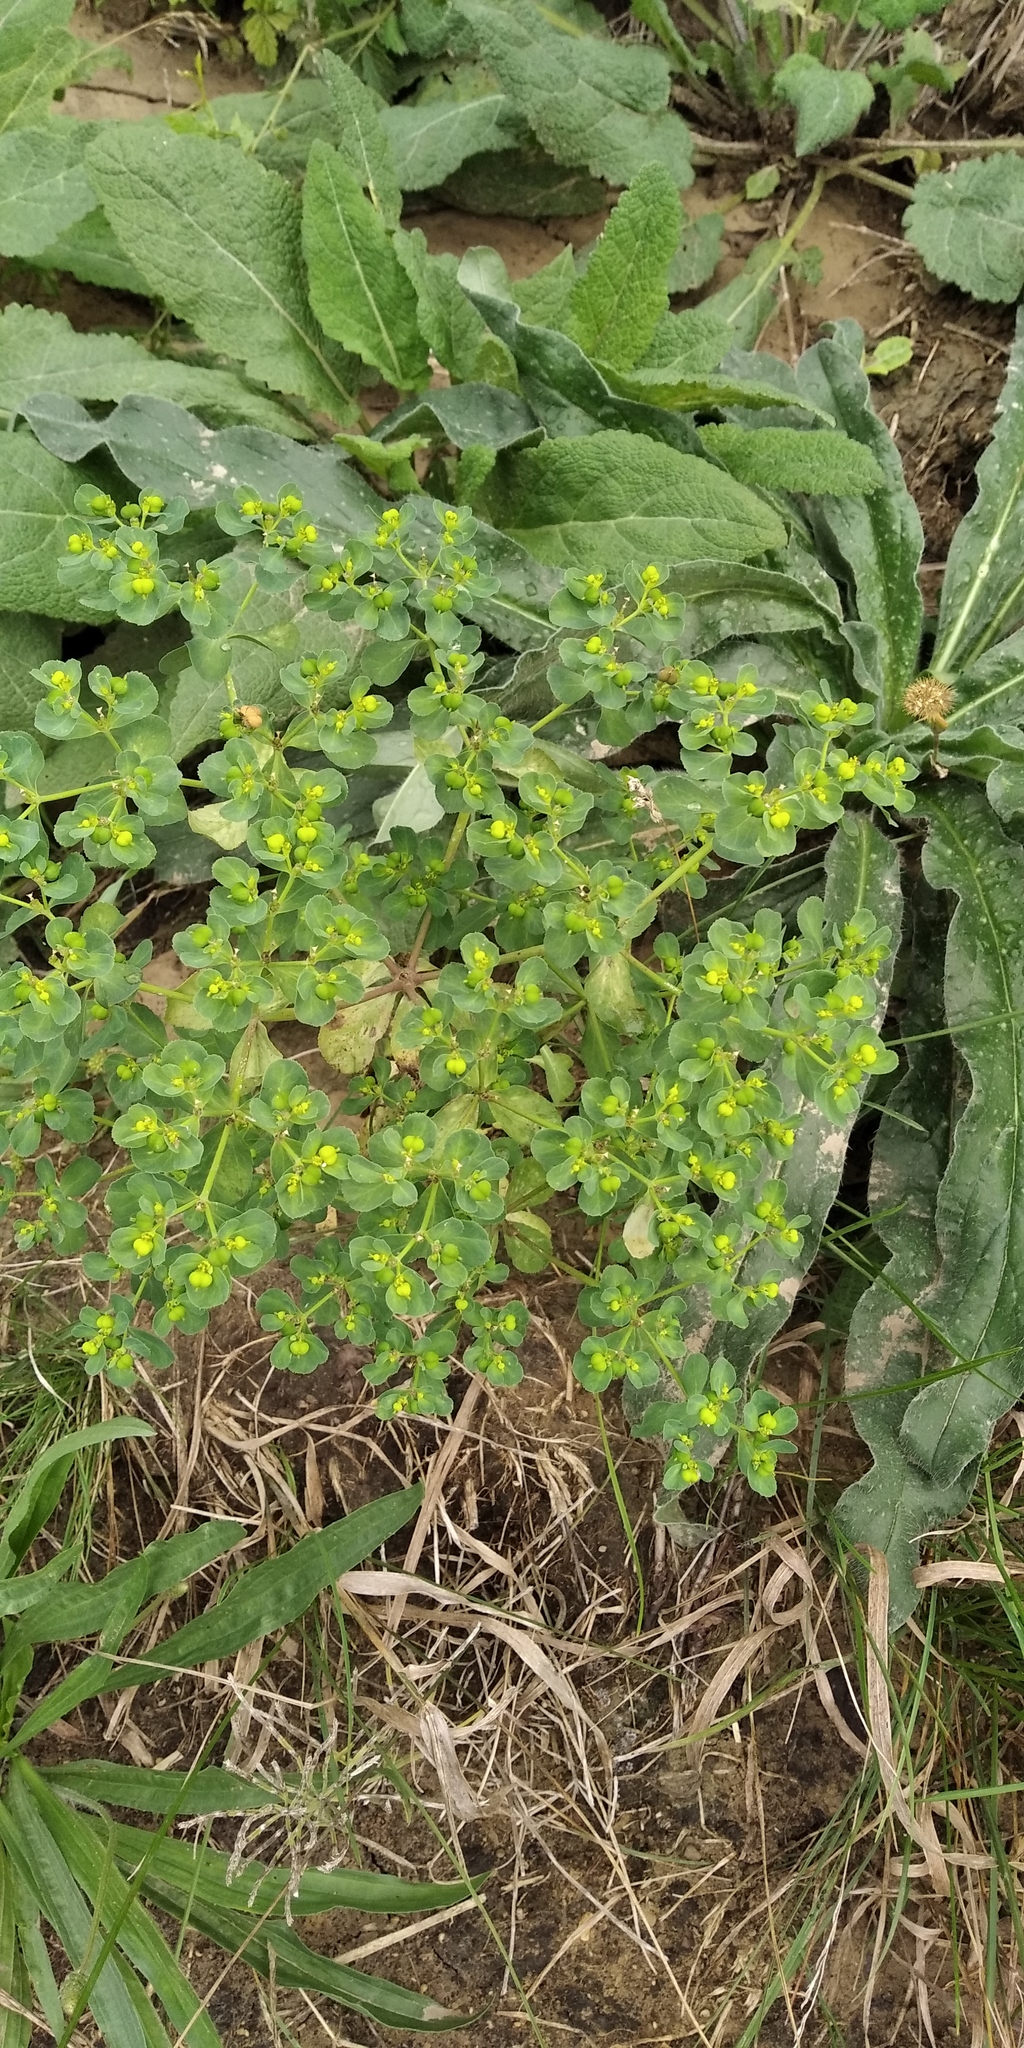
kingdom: Plantae
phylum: Tracheophyta
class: Magnoliopsida
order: Malpighiales
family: Euphorbiaceae
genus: Euphorbia
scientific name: Euphorbia helioscopia
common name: Sun spurge
